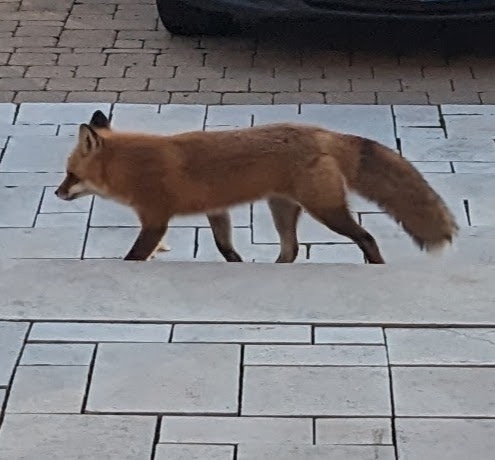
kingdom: Animalia
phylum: Chordata
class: Mammalia
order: Carnivora
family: Canidae
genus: Vulpes
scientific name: Vulpes vulpes
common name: Red fox
